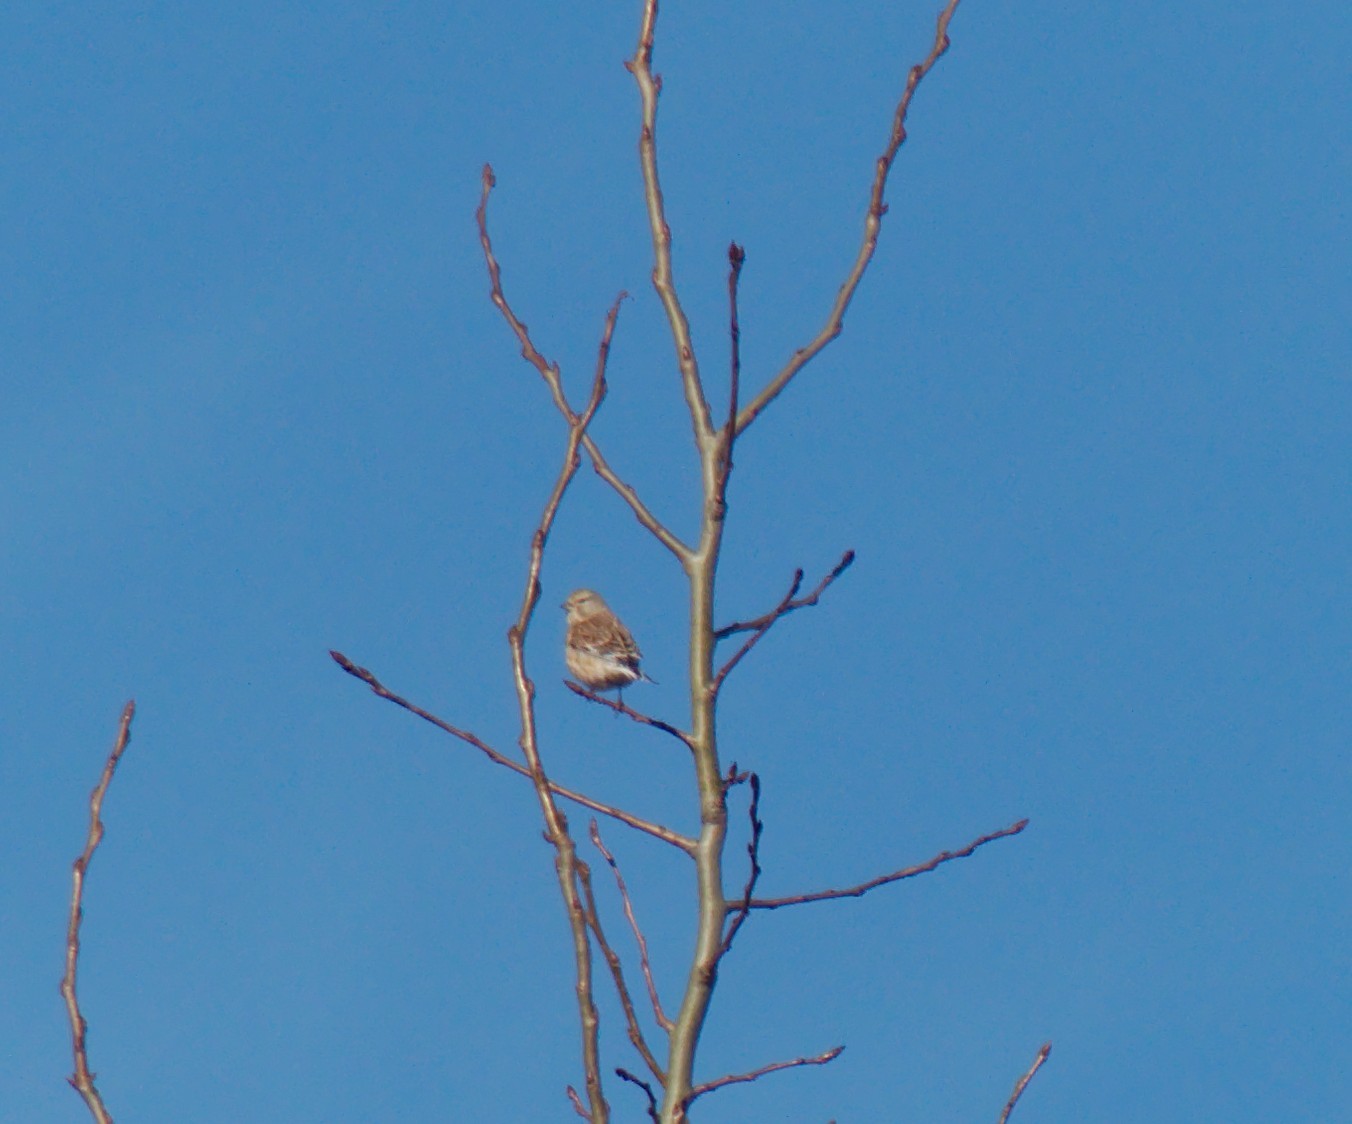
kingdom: Animalia
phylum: Chordata
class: Aves
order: Passeriformes
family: Fringillidae
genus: Linaria
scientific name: Linaria cannabina
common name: Common linnet
